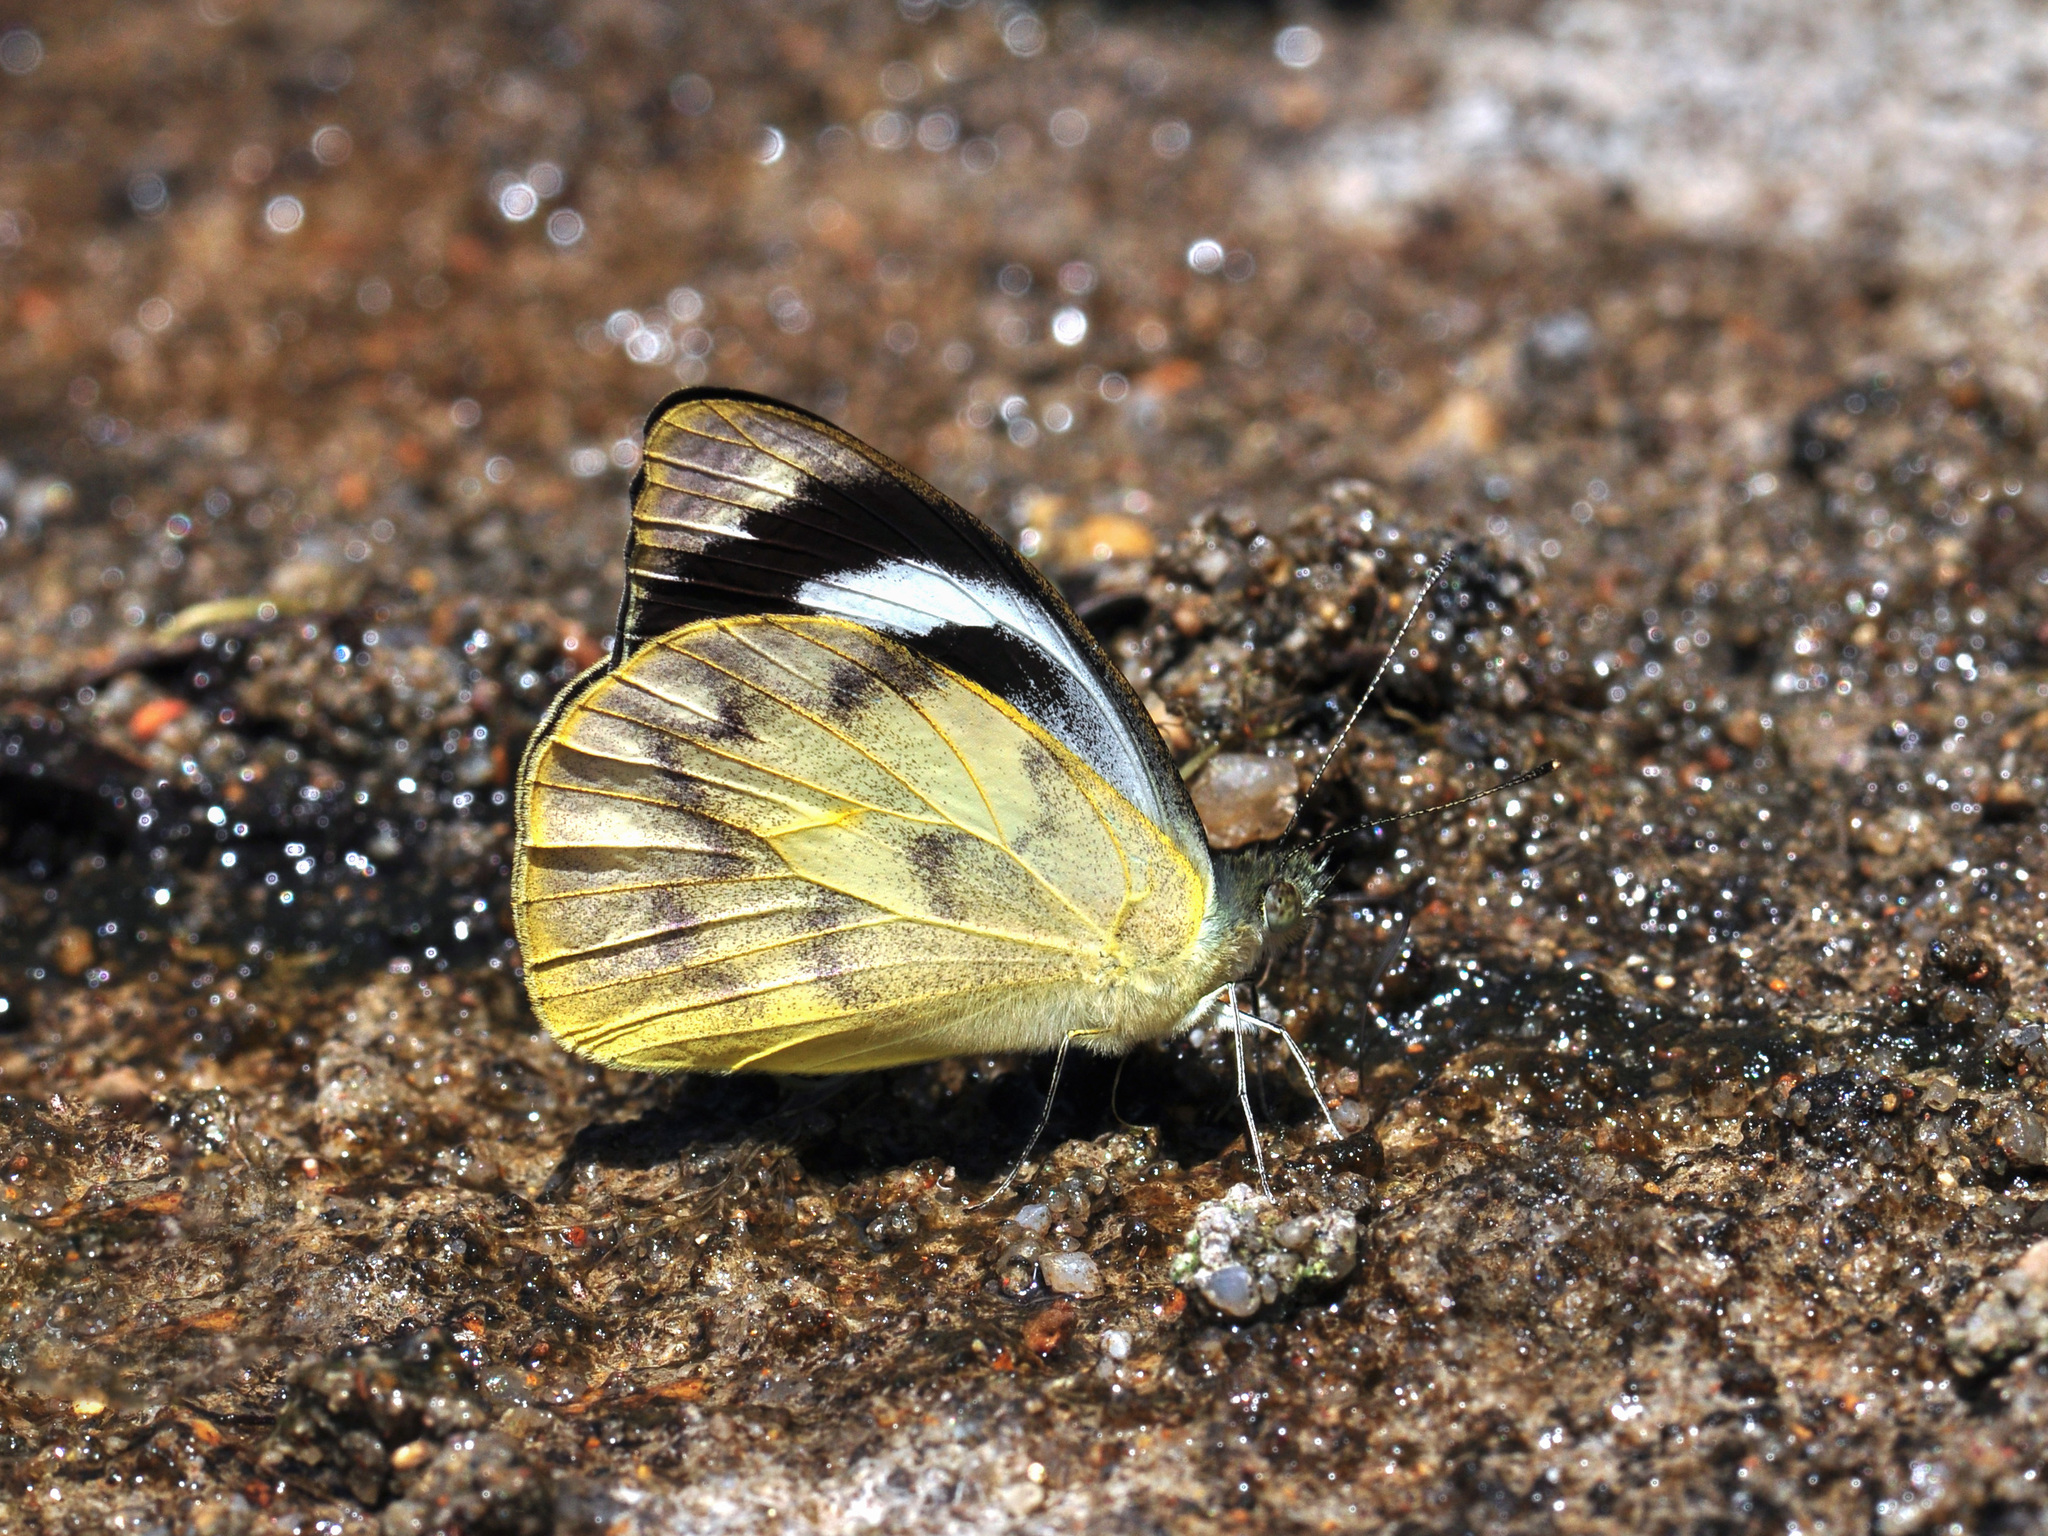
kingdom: Animalia
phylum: Arthropoda
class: Insecta
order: Lepidoptera
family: Pieridae
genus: Appias
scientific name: Appias pandione
